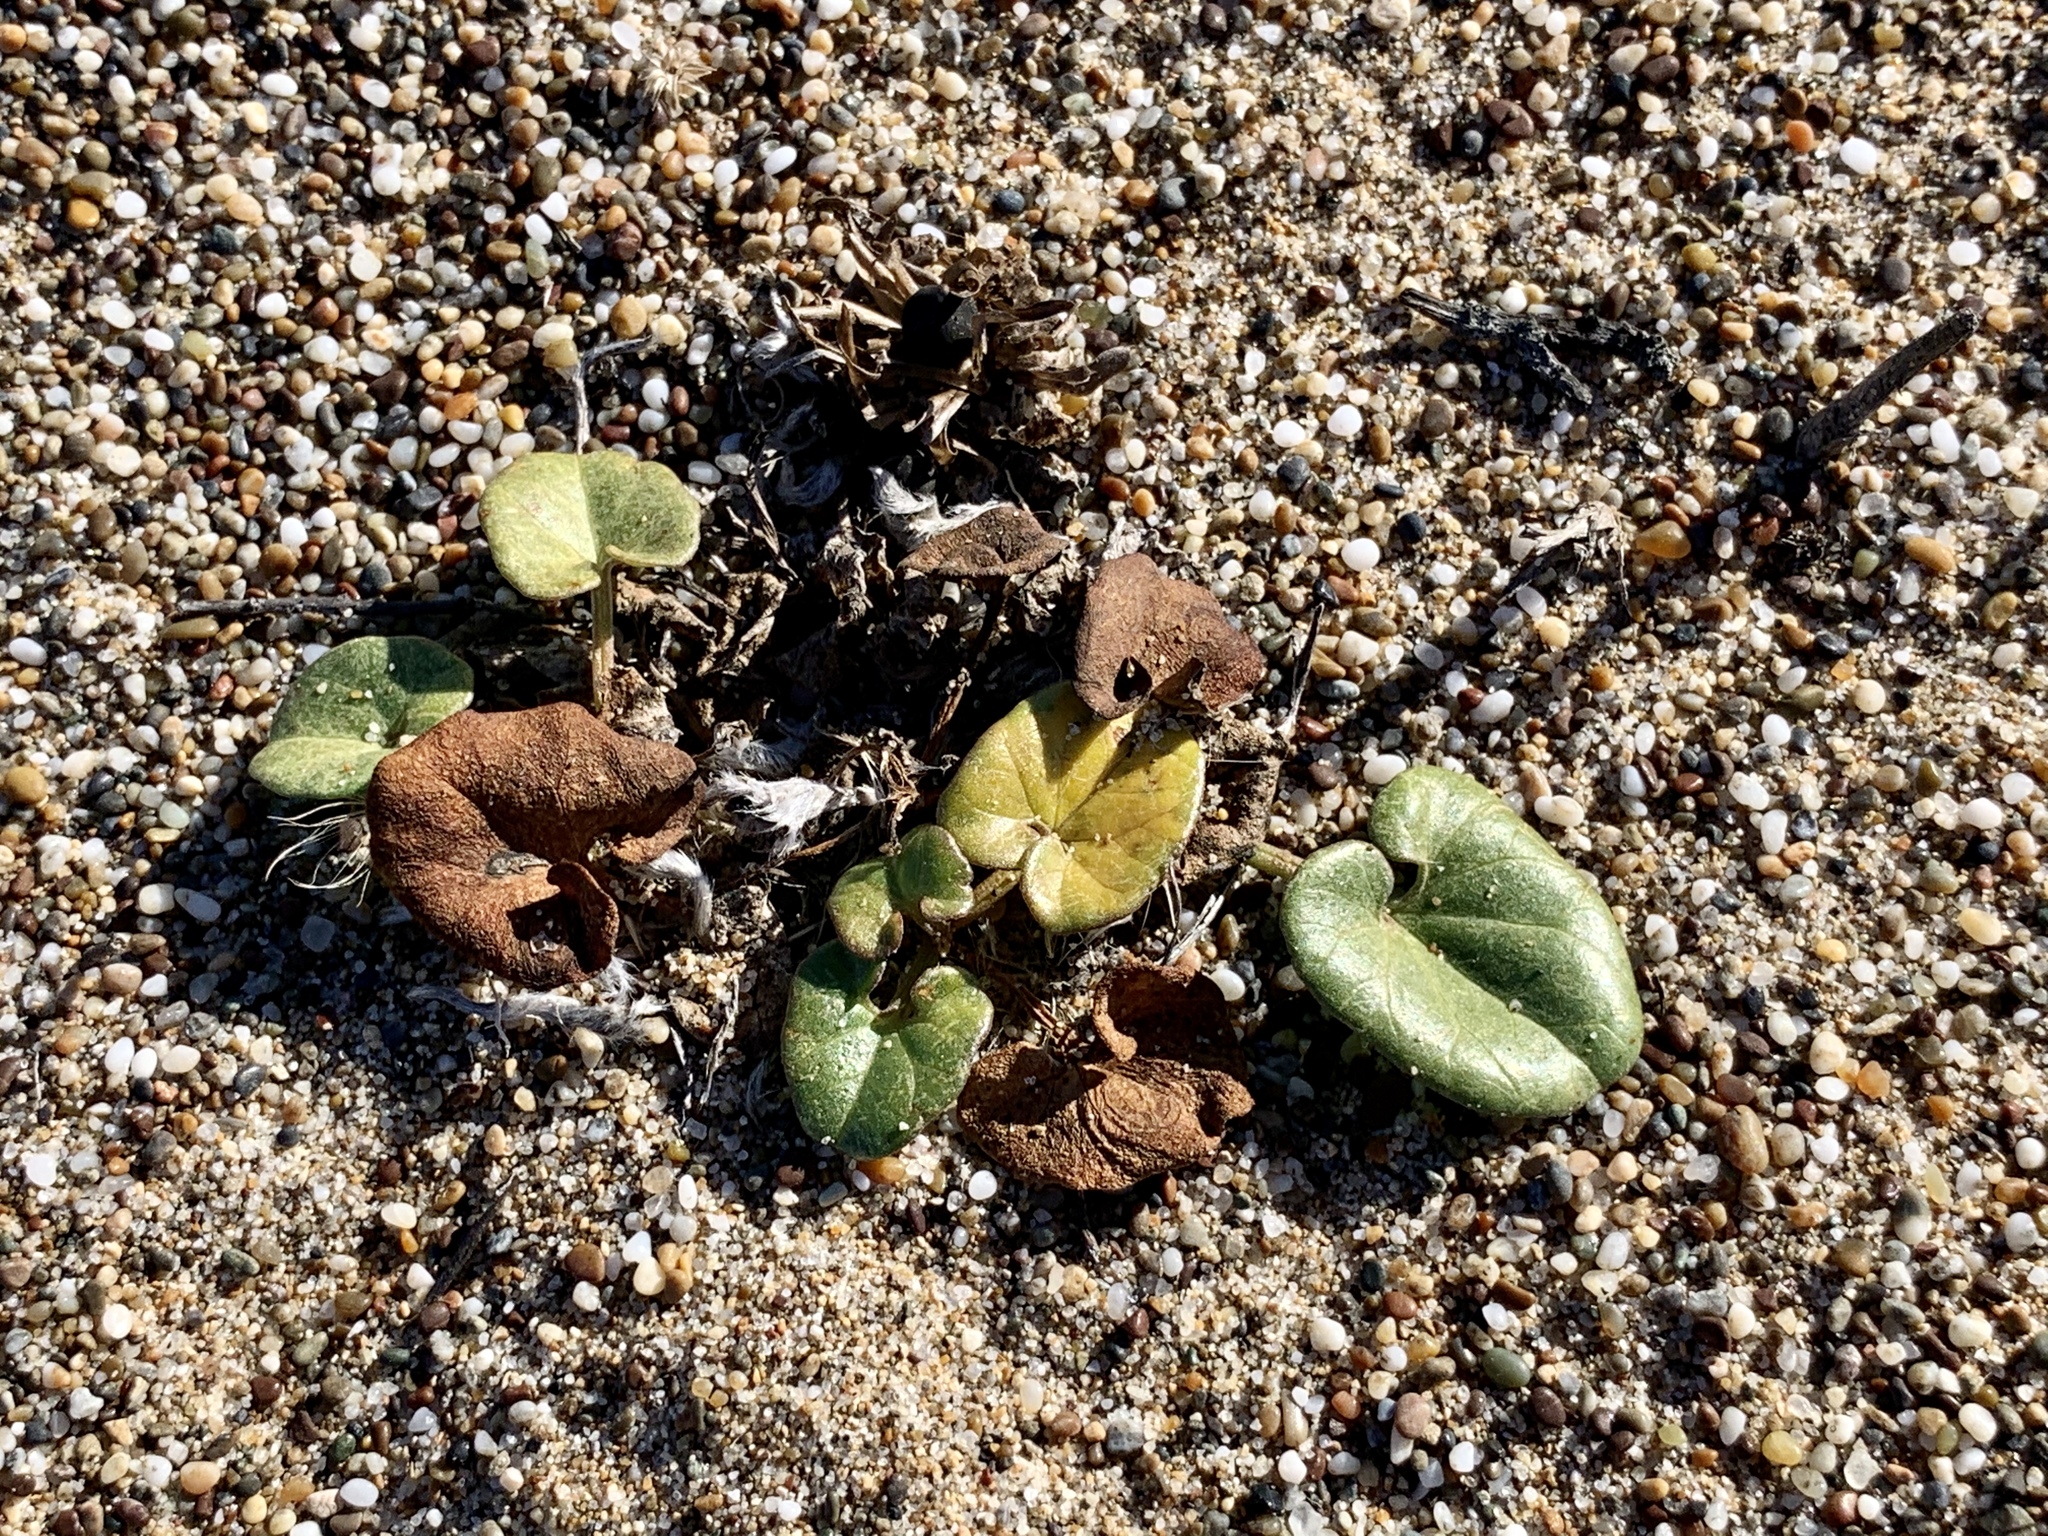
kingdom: Plantae
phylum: Tracheophyta
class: Magnoliopsida
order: Solanales
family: Convolvulaceae
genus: Calystegia
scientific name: Calystegia soldanella
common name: Sea bindweed
